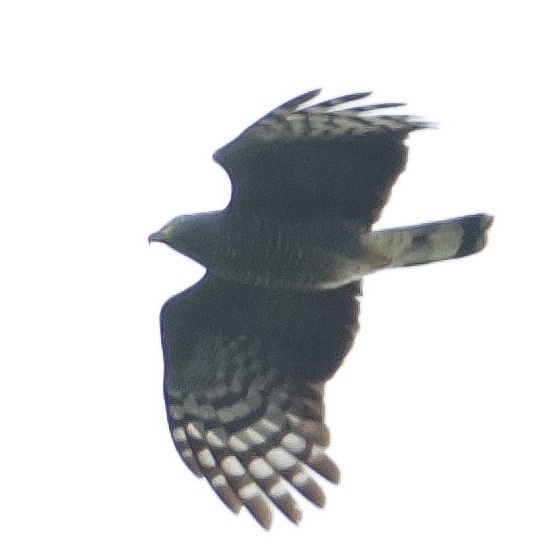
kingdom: Animalia
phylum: Chordata
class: Aves
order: Accipitriformes
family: Accipitridae
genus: Chondrohierax
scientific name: Chondrohierax uncinatus
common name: Hook-billed kite
